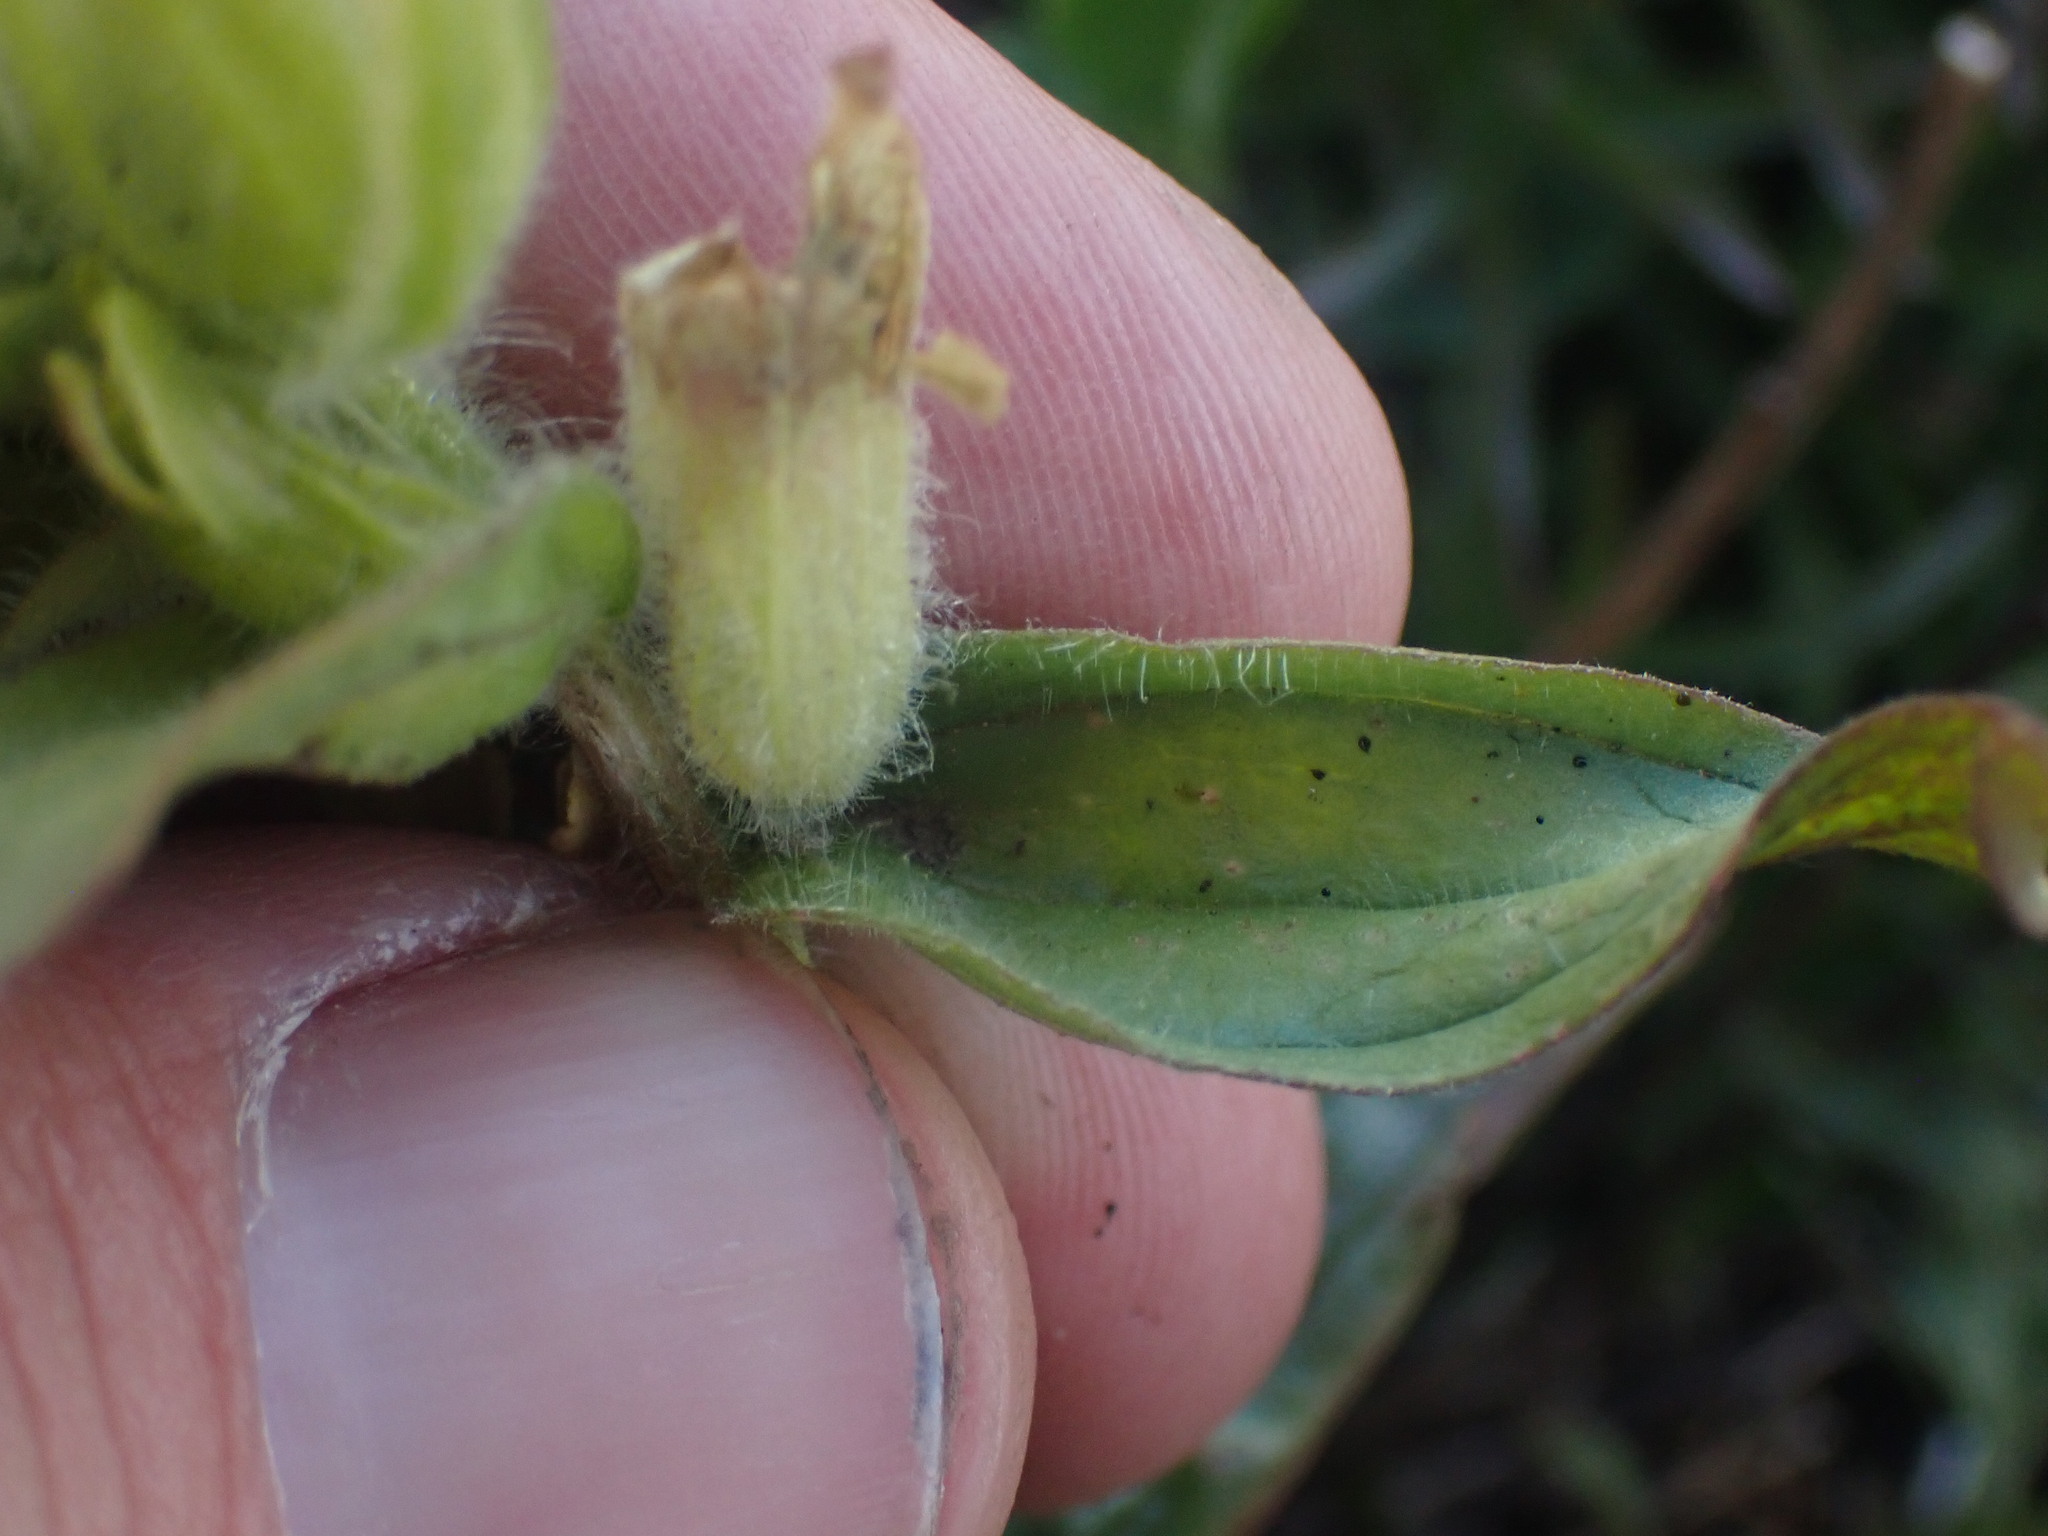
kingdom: Plantae
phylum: Tracheophyta
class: Magnoliopsida
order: Lamiales
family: Orobanchaceae
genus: Castilleja
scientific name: Castilleja occidentalis
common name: Western paintbrush
